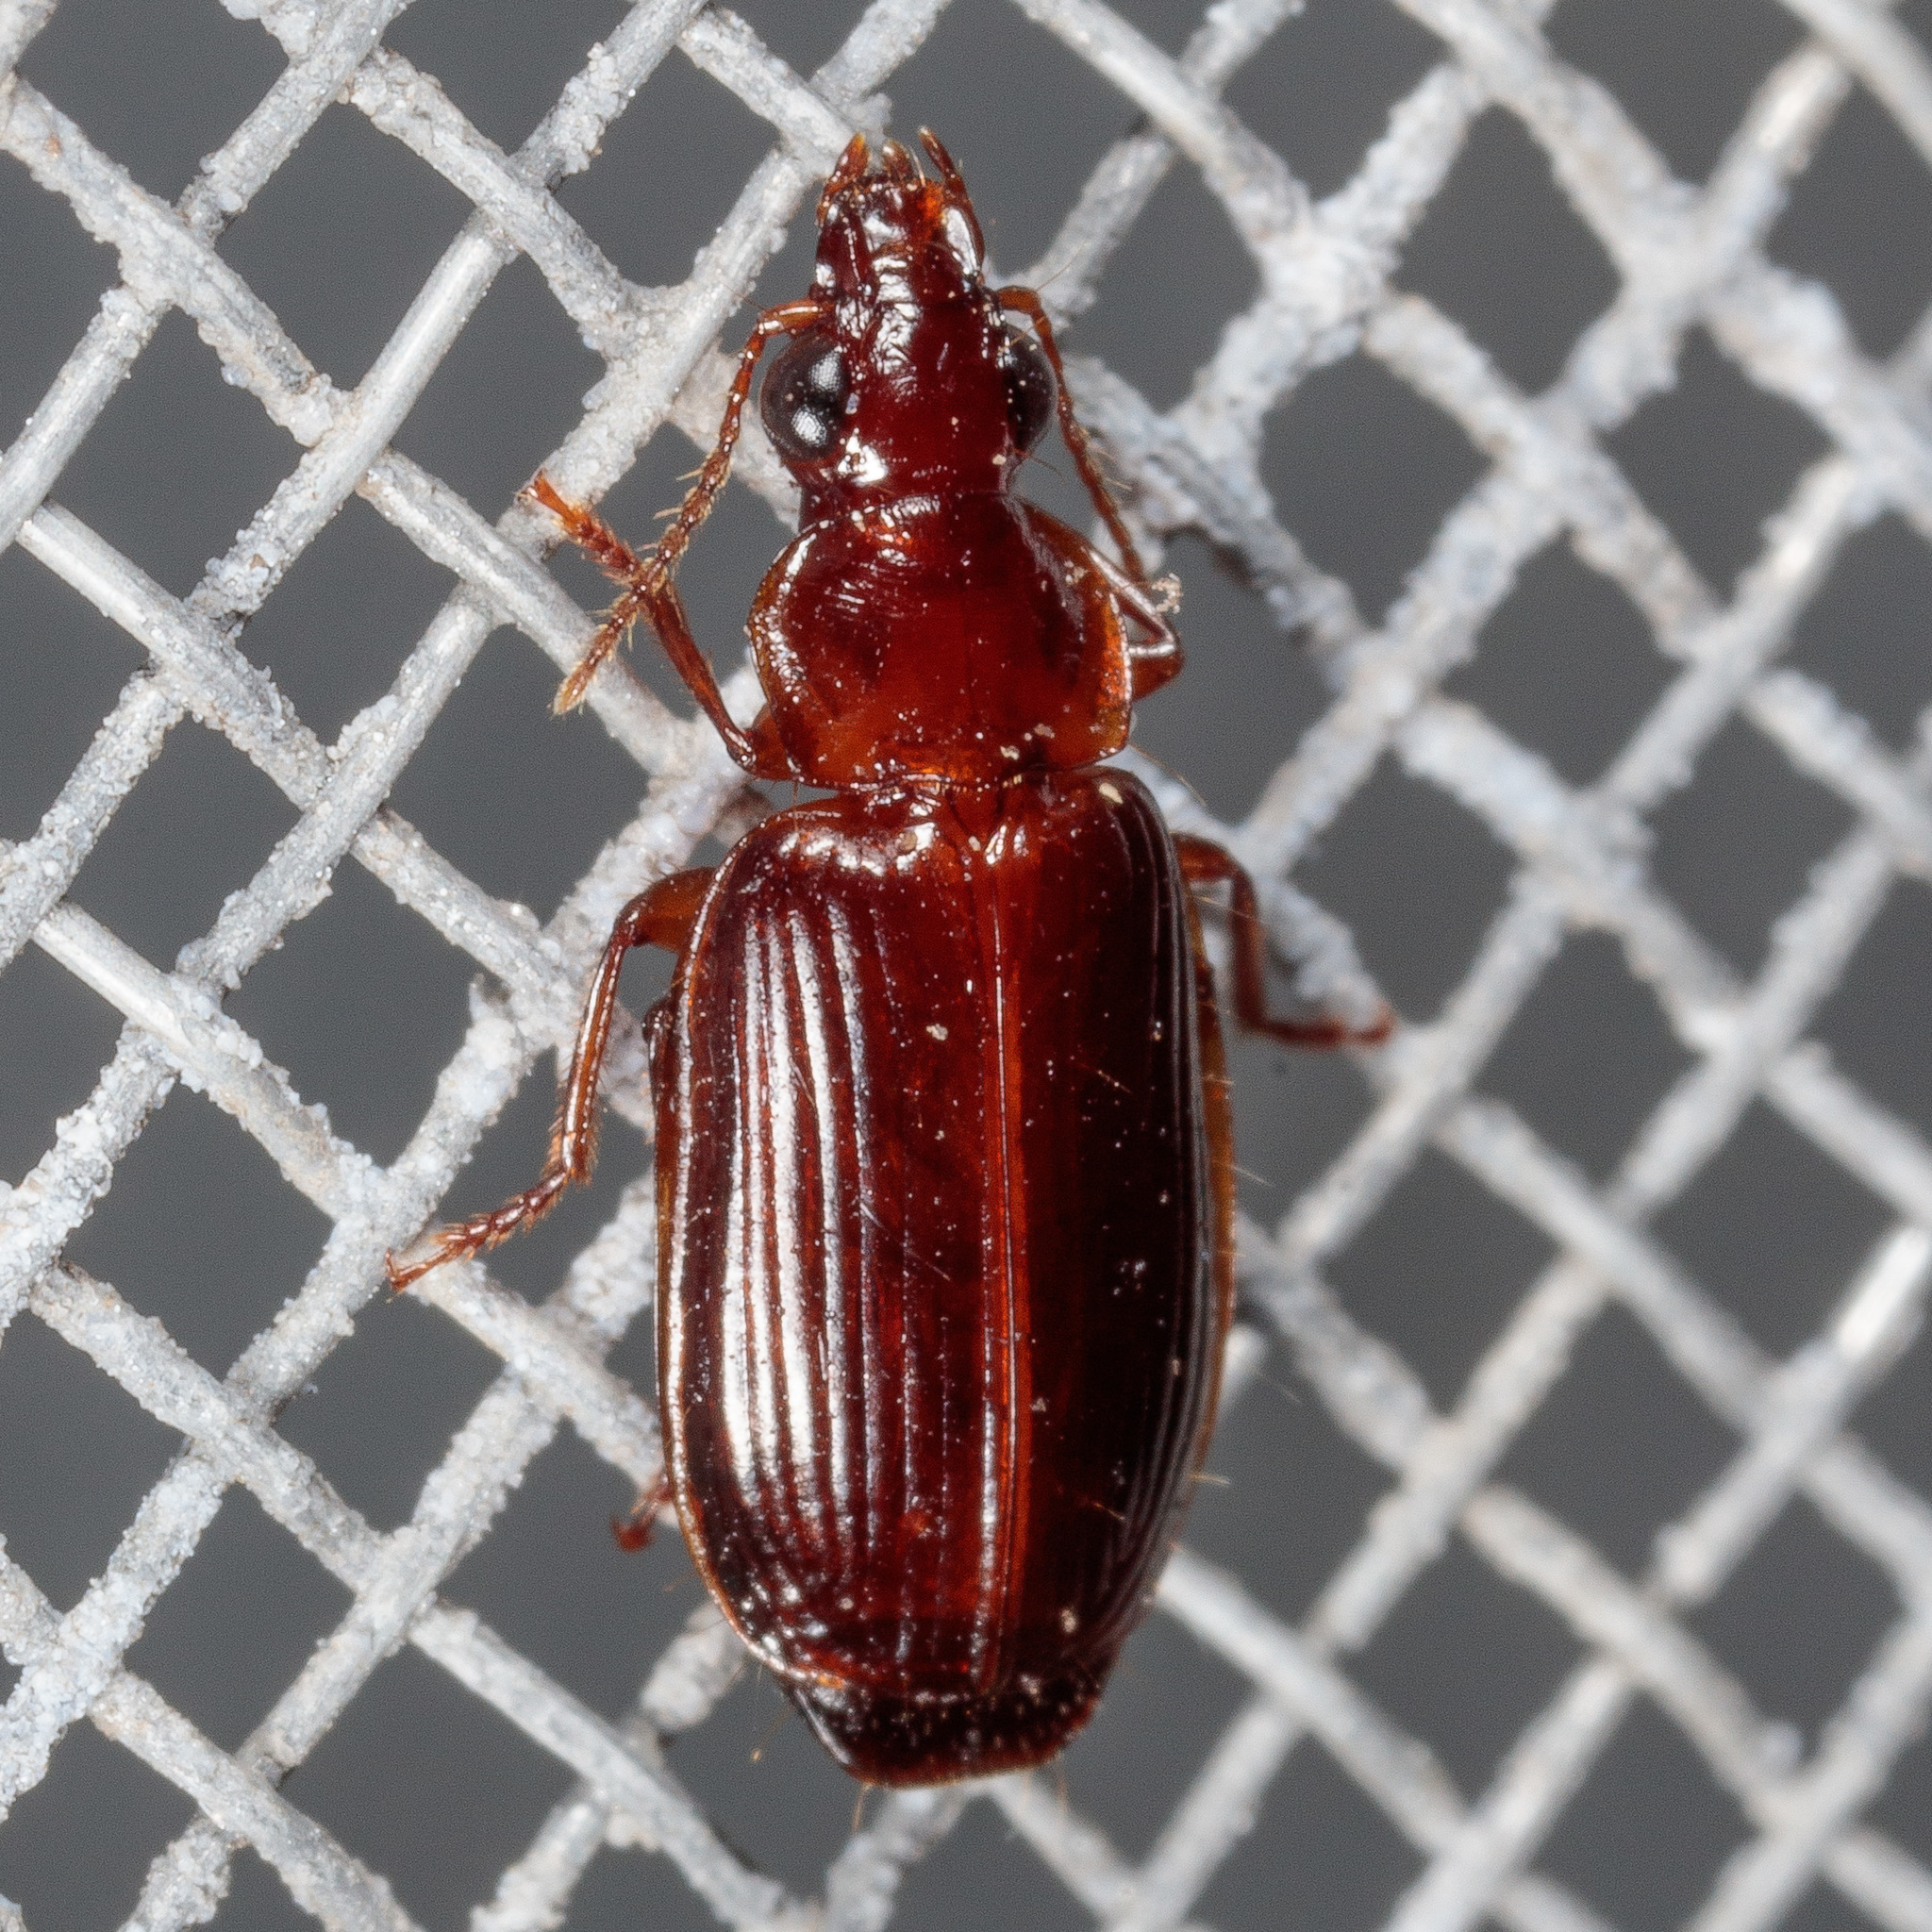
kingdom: Animalia
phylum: Arthropoda
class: Insecta
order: Coleoptera
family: Carabidae
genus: Plochionus
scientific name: Plochionus timidus
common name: Timid harp ground beetle
